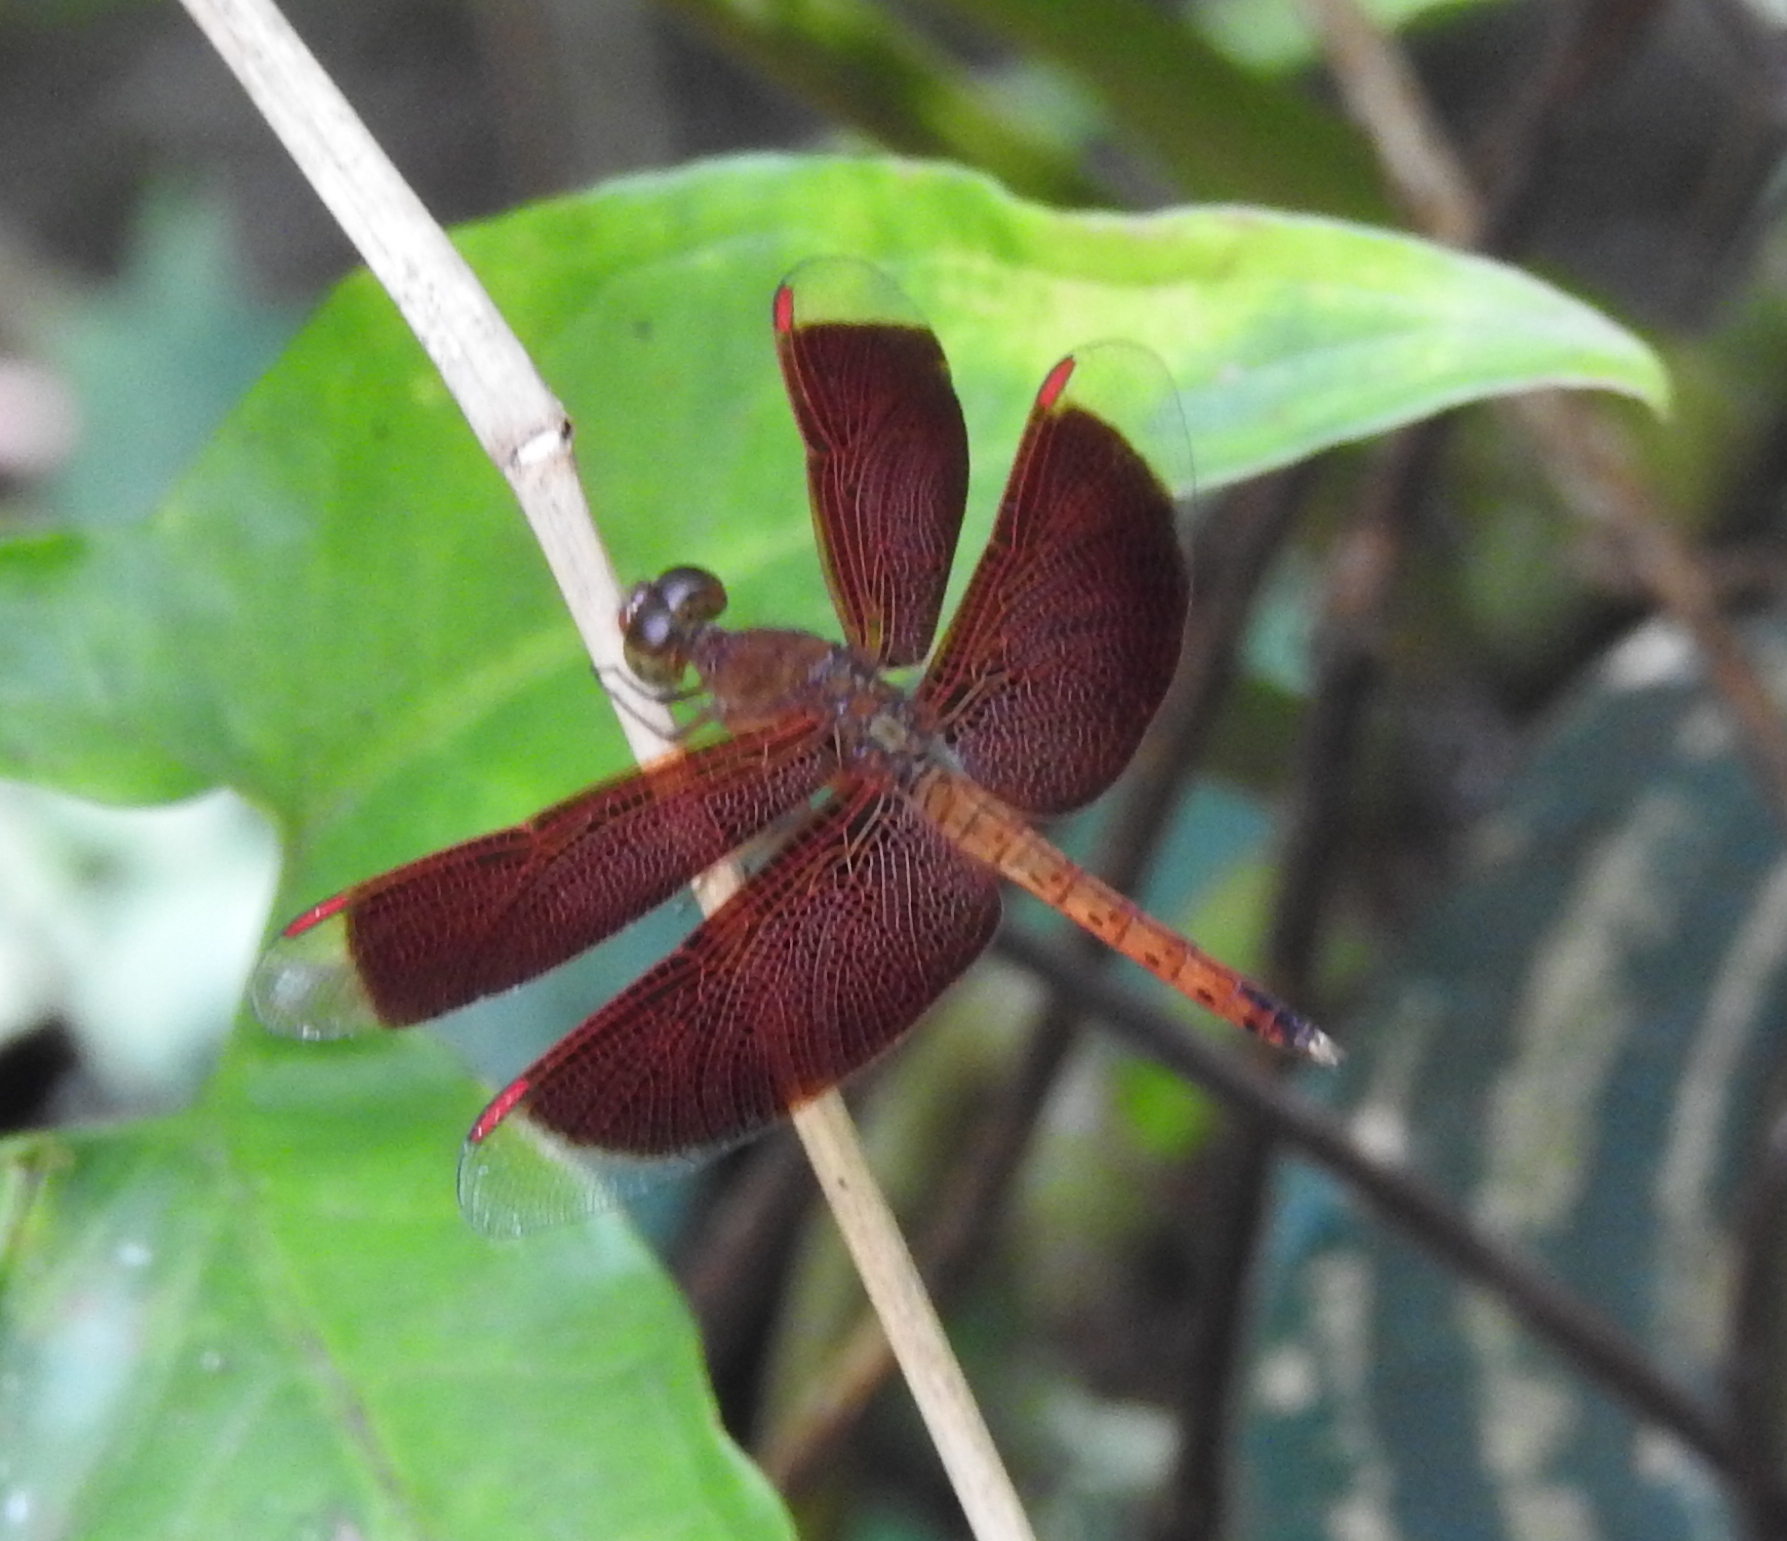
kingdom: Animalia
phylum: Arthropoda
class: Insecta
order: Odonata
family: Libellulidae
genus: Neurothemis
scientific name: Neurothemis fluctuans
